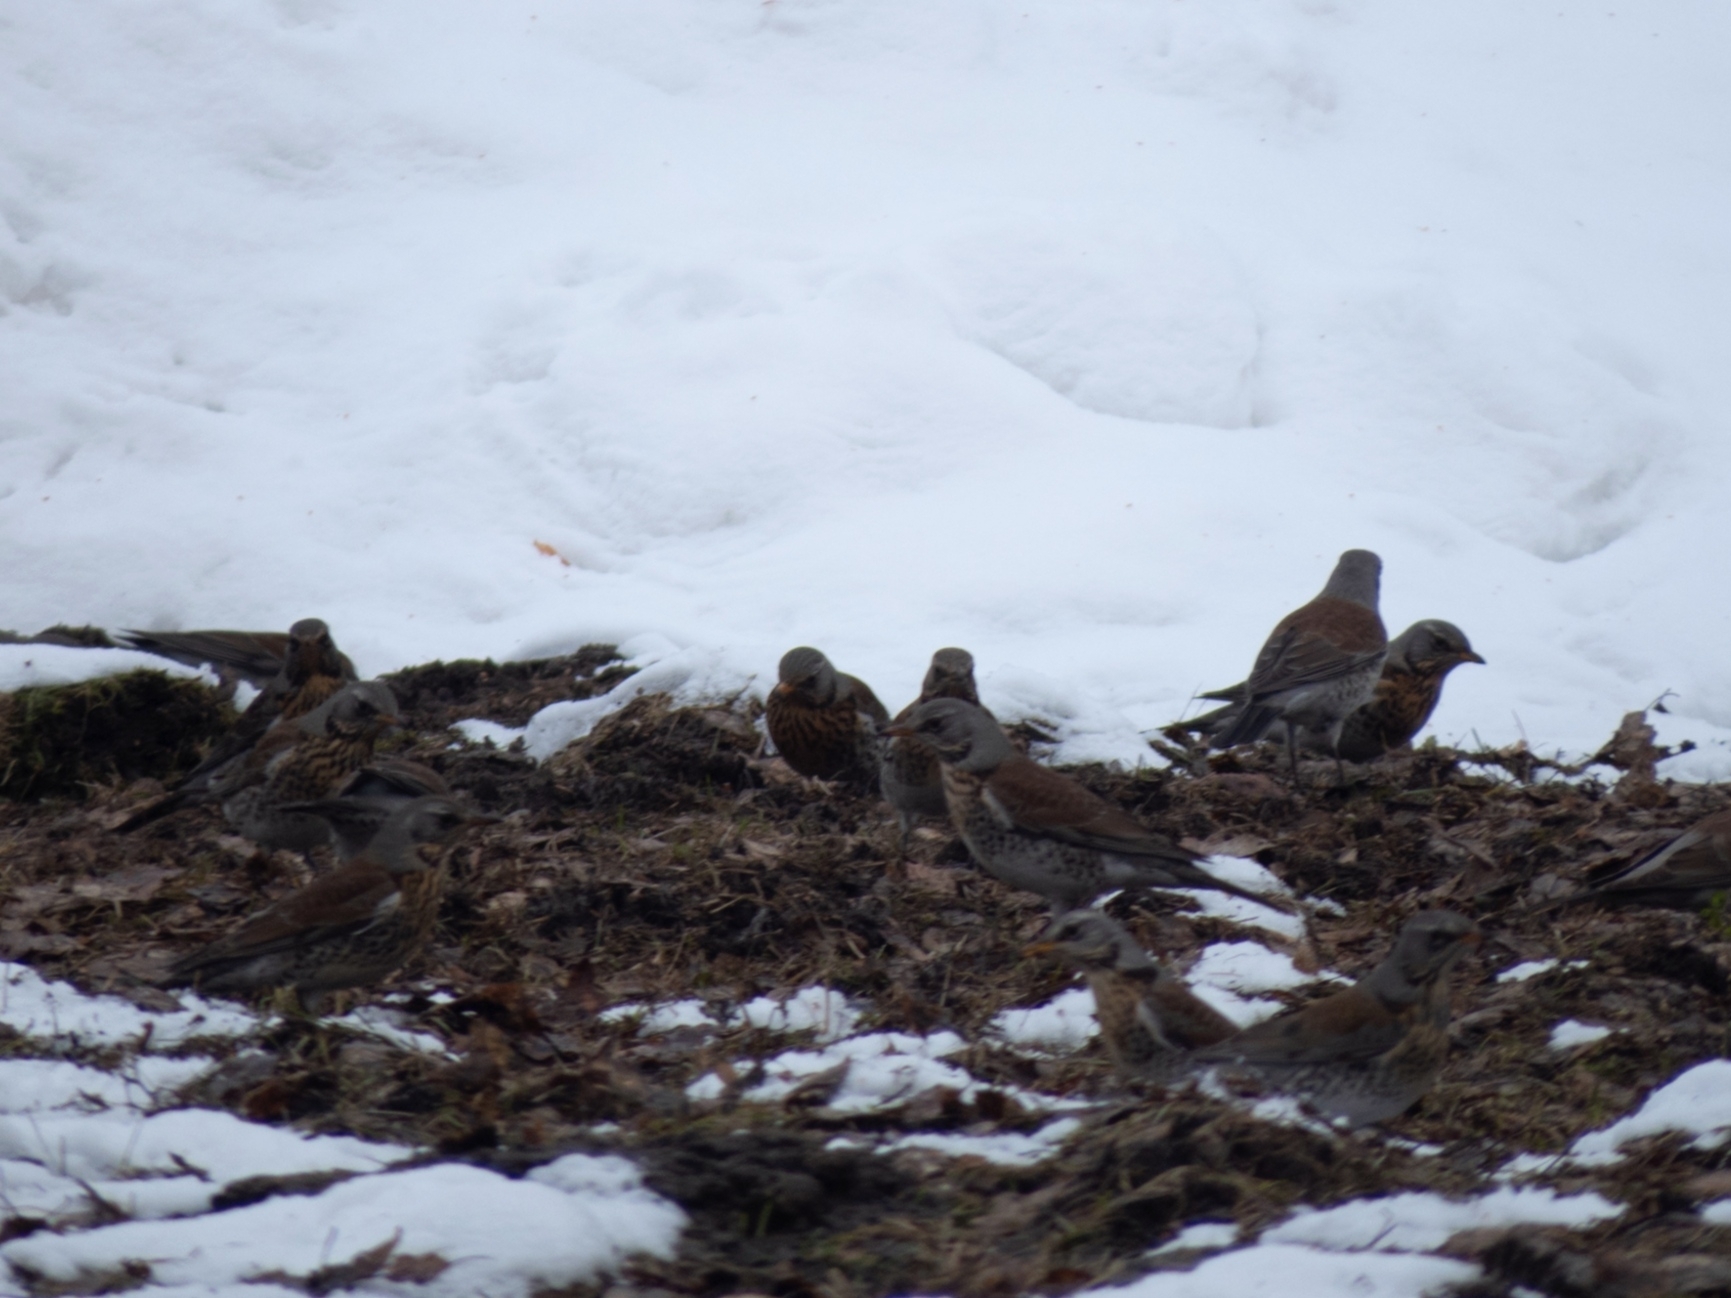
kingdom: Animalia
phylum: Chordata
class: Aves
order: Passeriformes
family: Turdidae
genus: Turdus
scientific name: Turdus pilaris
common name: Fieldfare
